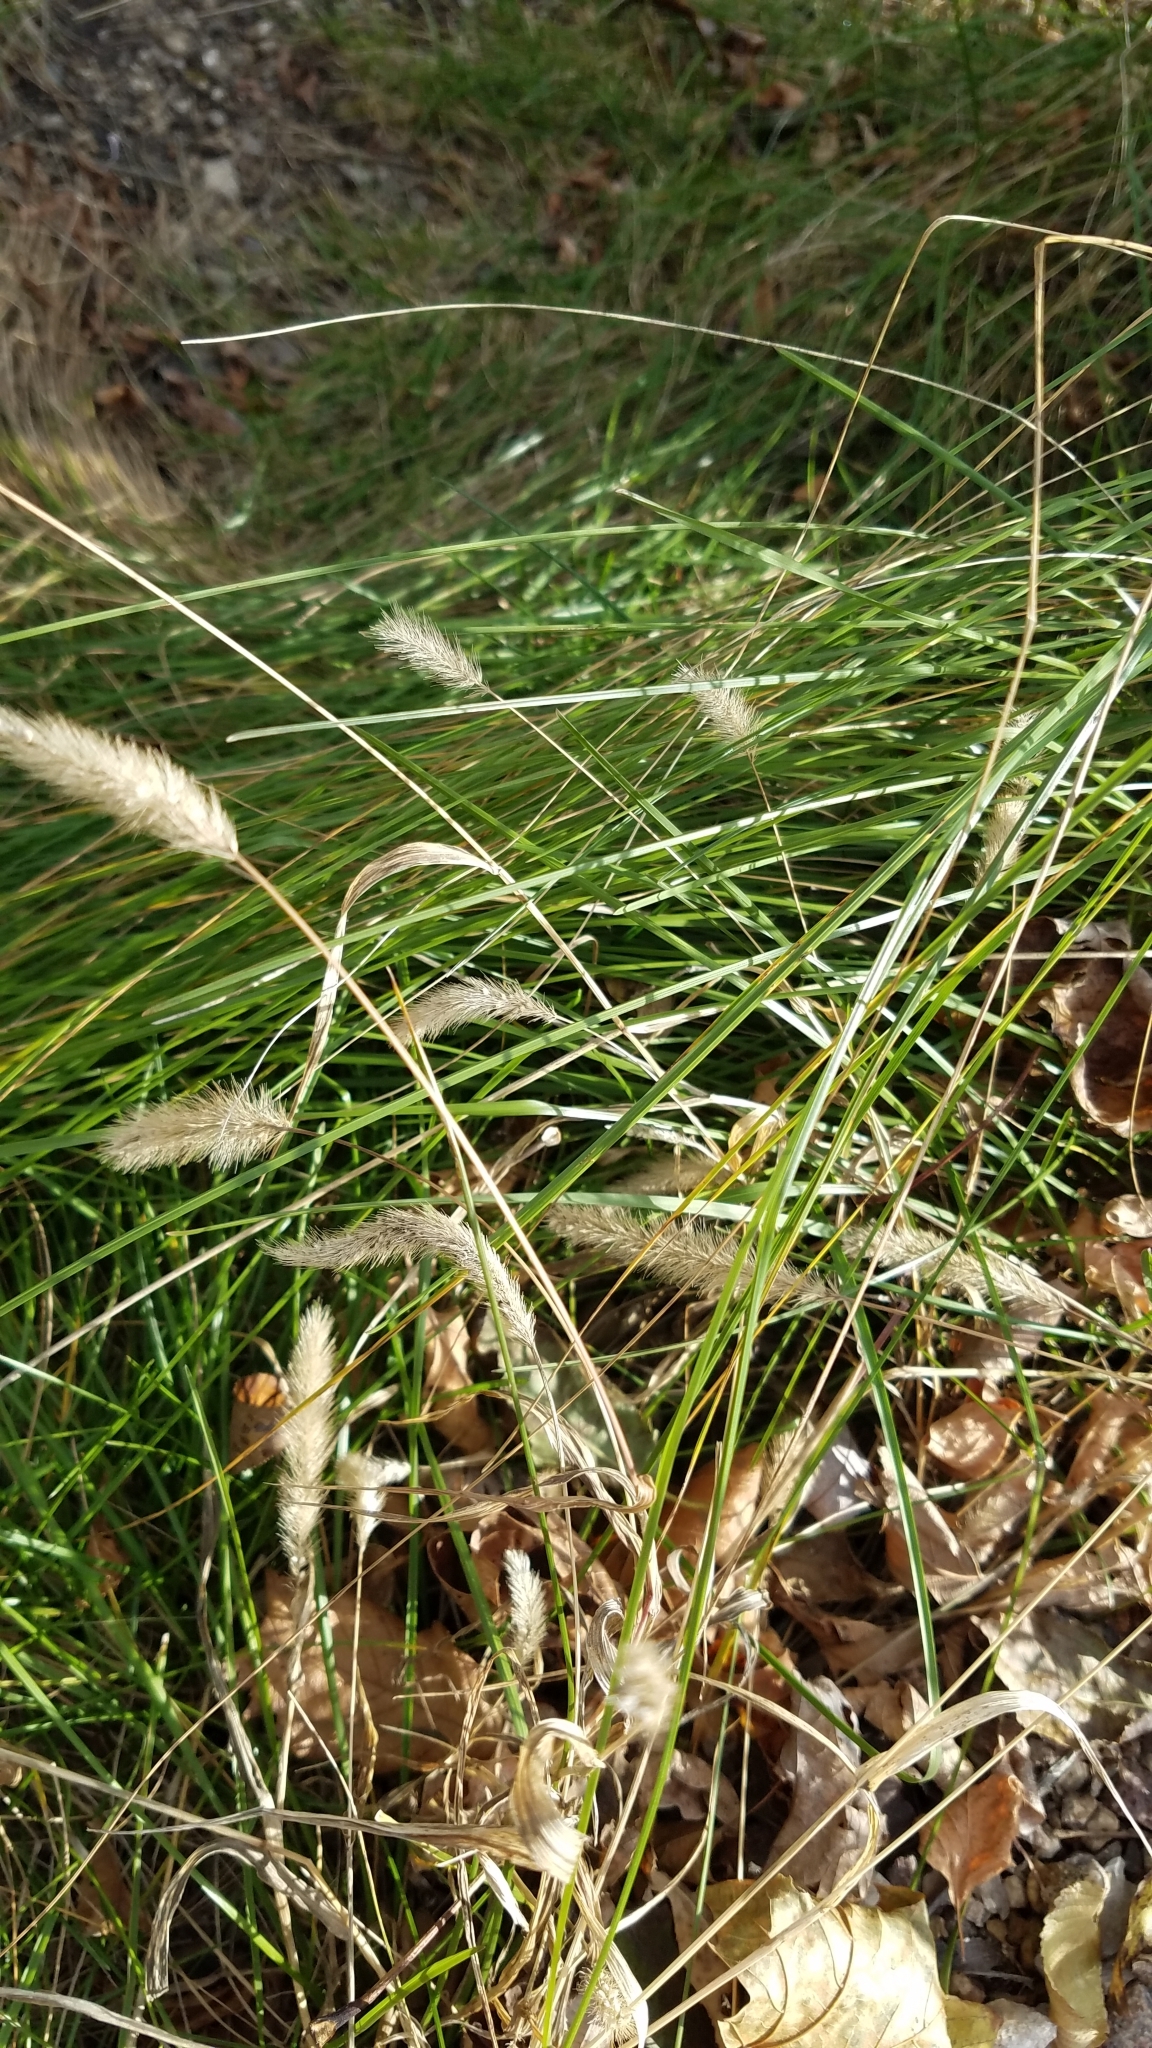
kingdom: Plantae
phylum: Tracheophyta
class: Liliopsida
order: Poales
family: Poaceae
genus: Setaria
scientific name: Setaria viridis
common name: Green bristlegrass
